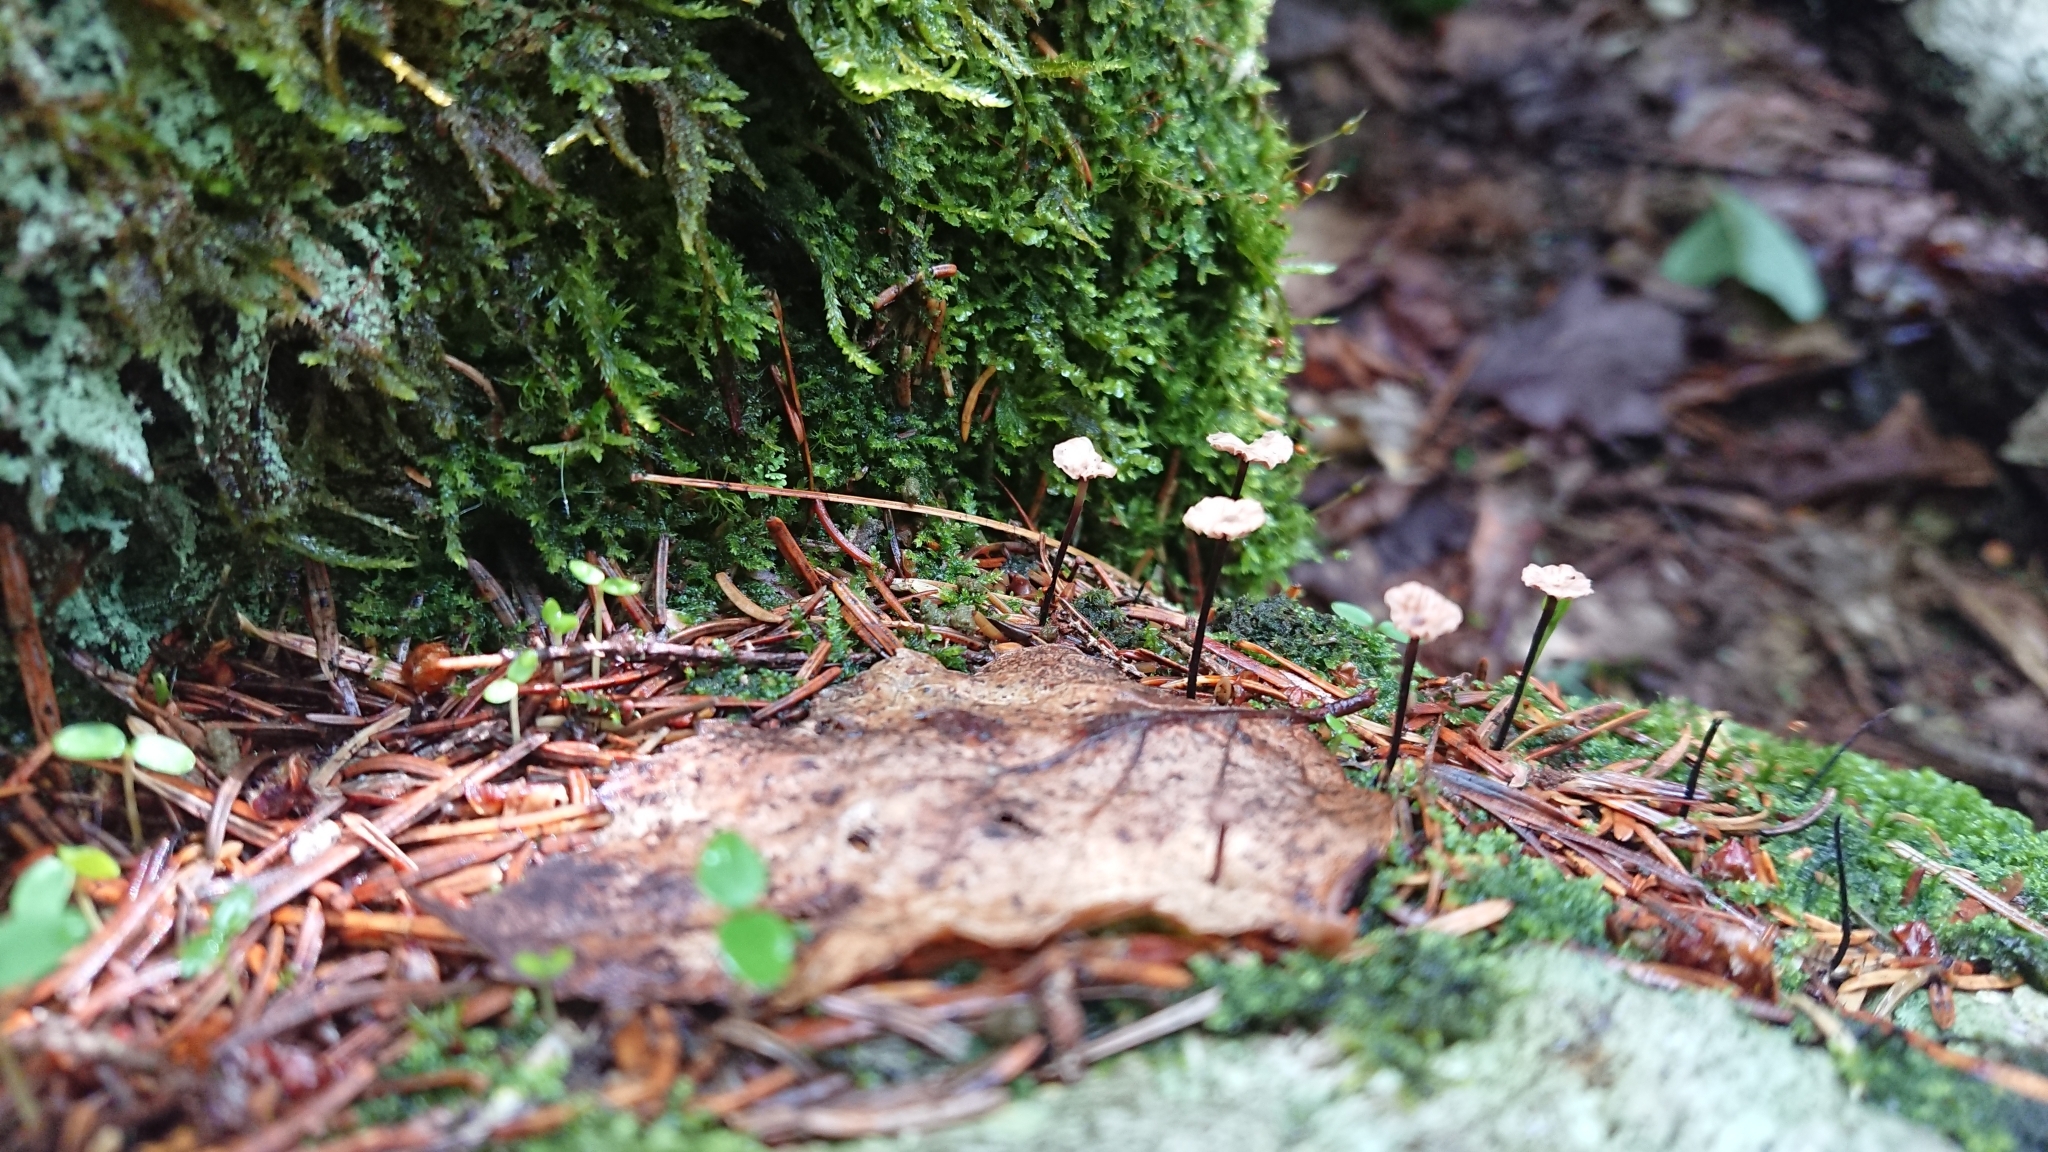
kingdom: Fungi
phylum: Basidiomycota
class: Agaricomycetes
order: Agaricales
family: Marasmiaceae
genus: Marasmius
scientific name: Marasmius capillaris
